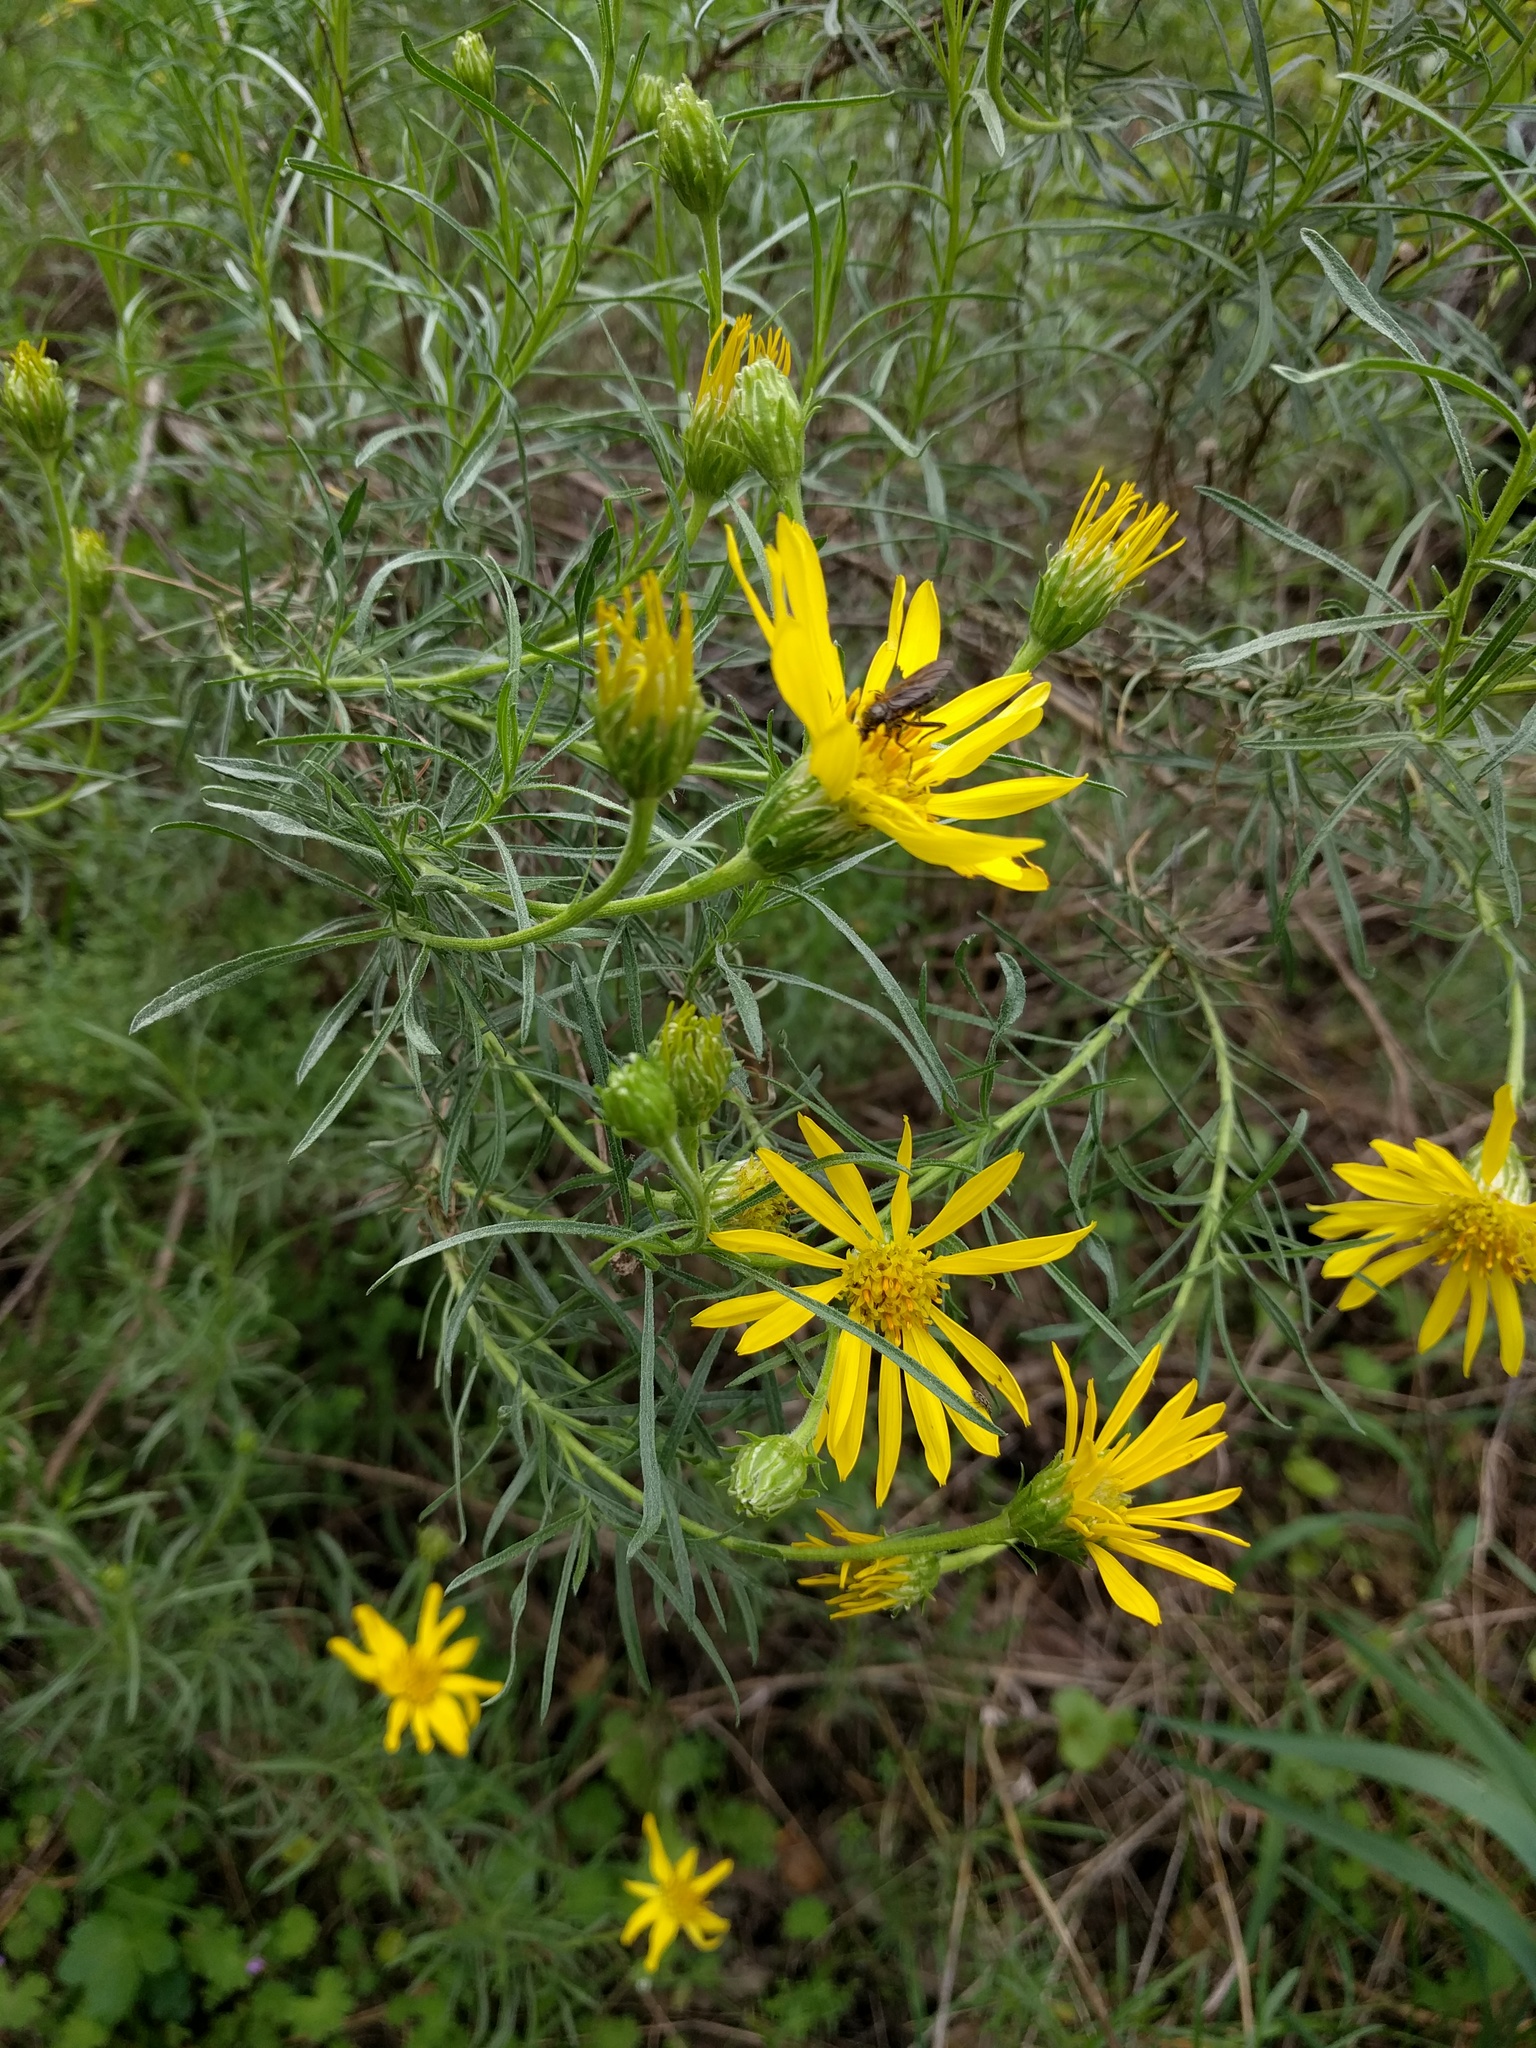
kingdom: Plantae
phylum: Tracheophyta
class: Magnoliopsida
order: Asterales
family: Asteraceae
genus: Ericameria
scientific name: Ericameria linearifolia
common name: Interior goldenbush
